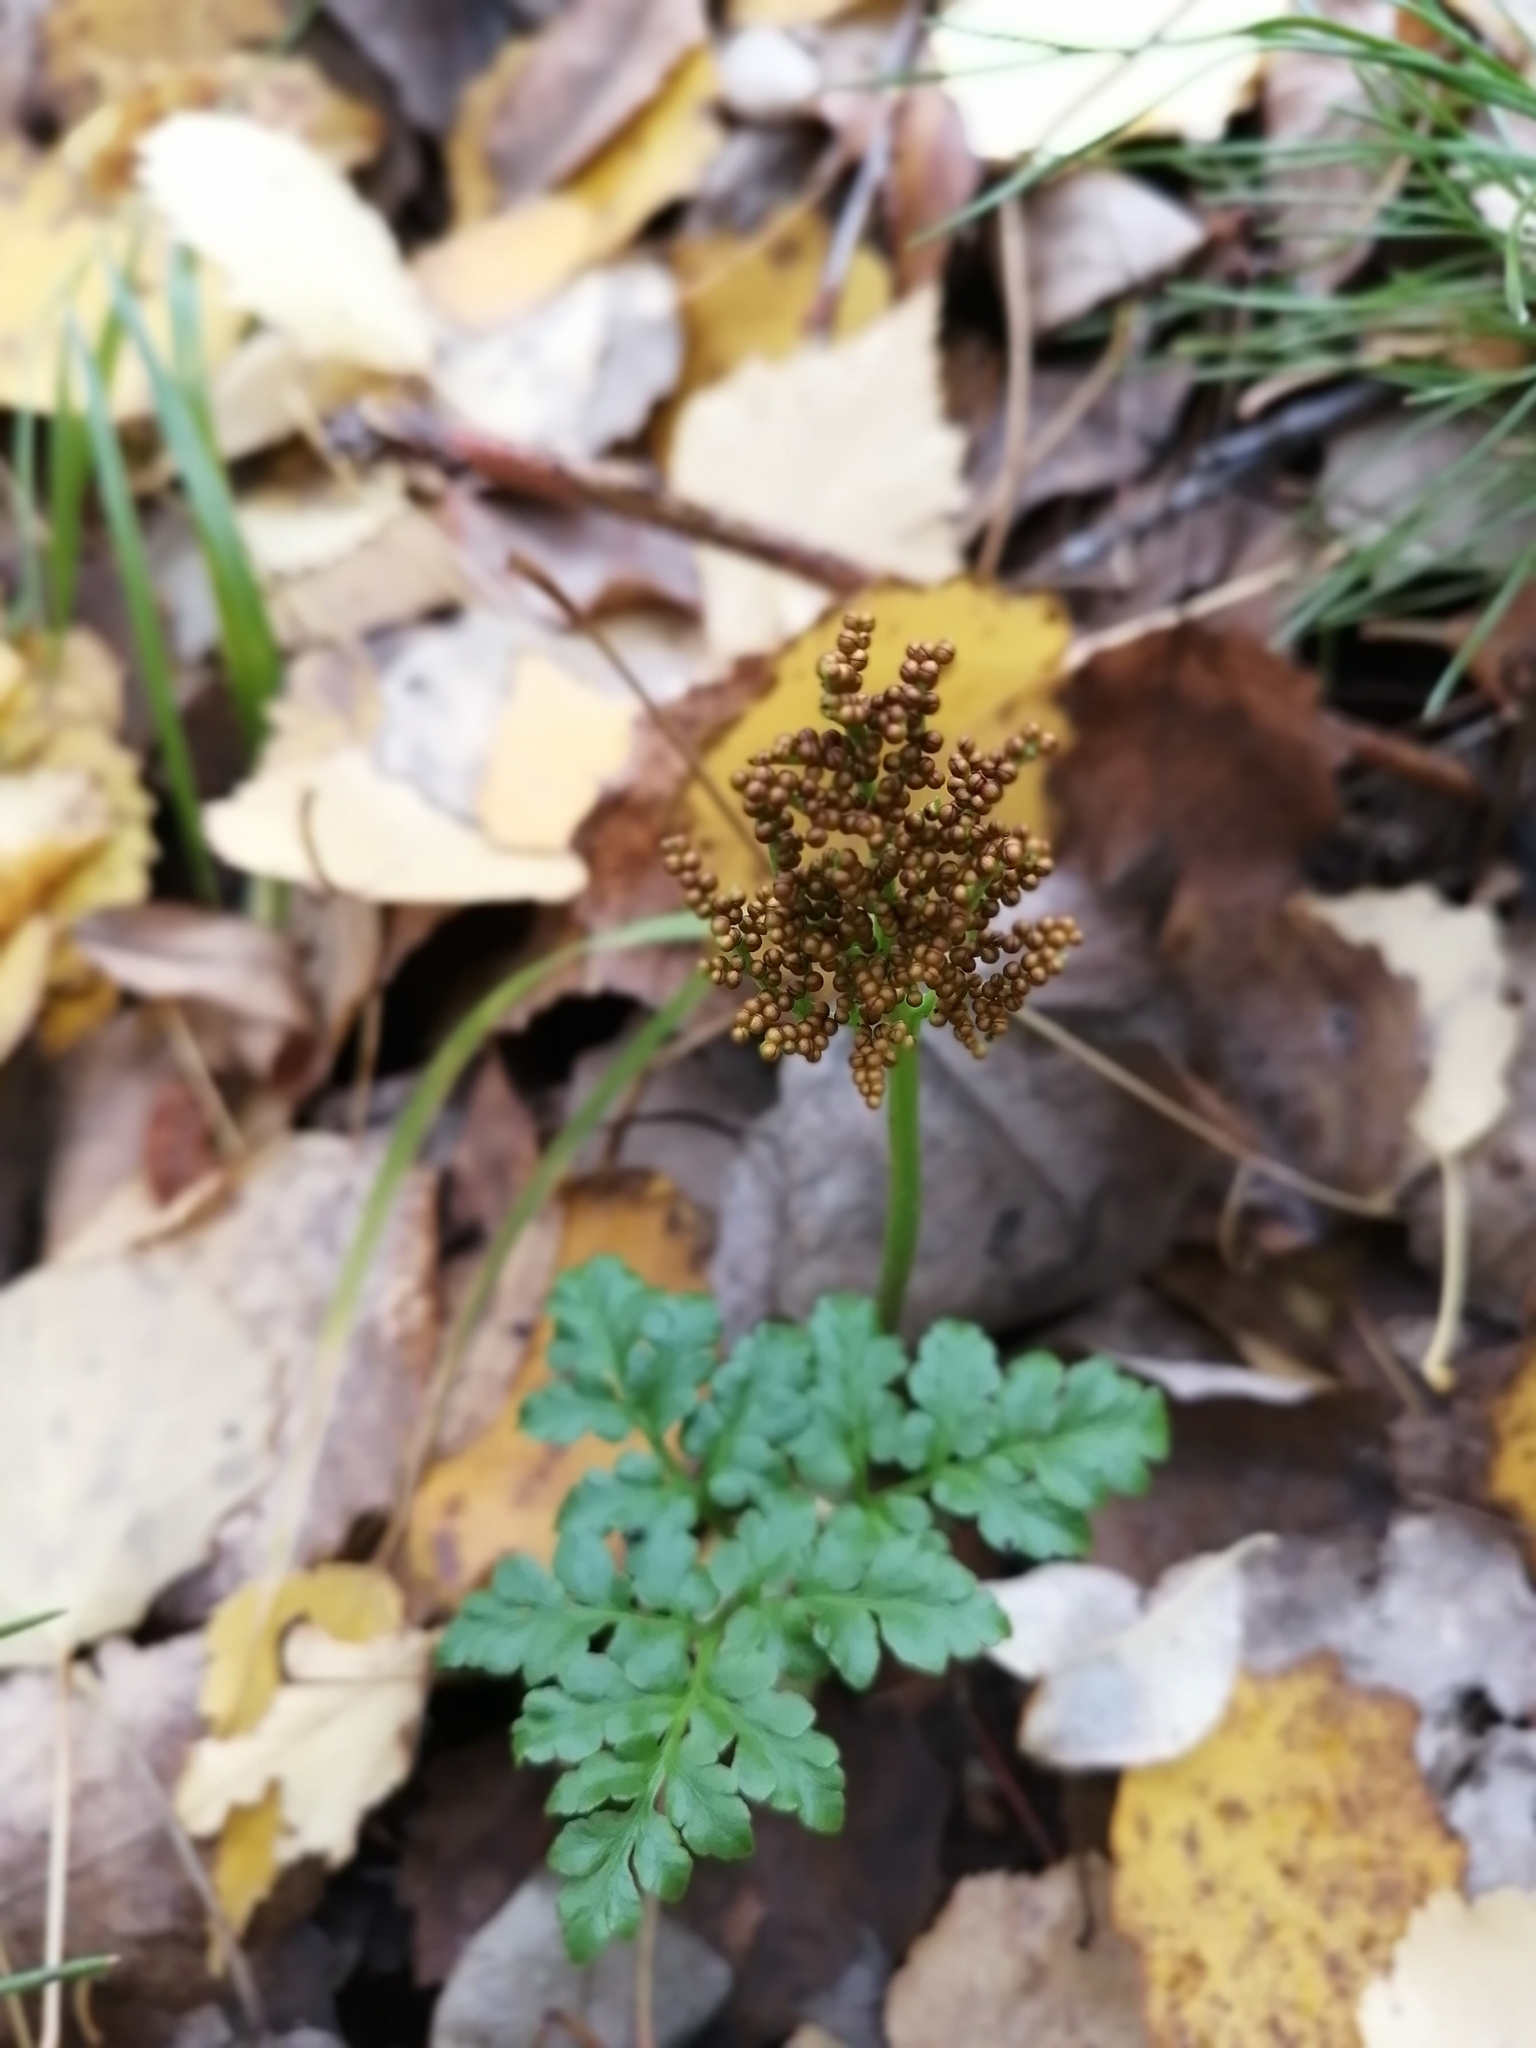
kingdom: Plantae
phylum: Tracheophyta
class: Polypodiopsida
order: Ophioglossales
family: Ophioglossaceae
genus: Sceptridium
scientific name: Sceptridium multifidum
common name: Leathery grape fern
